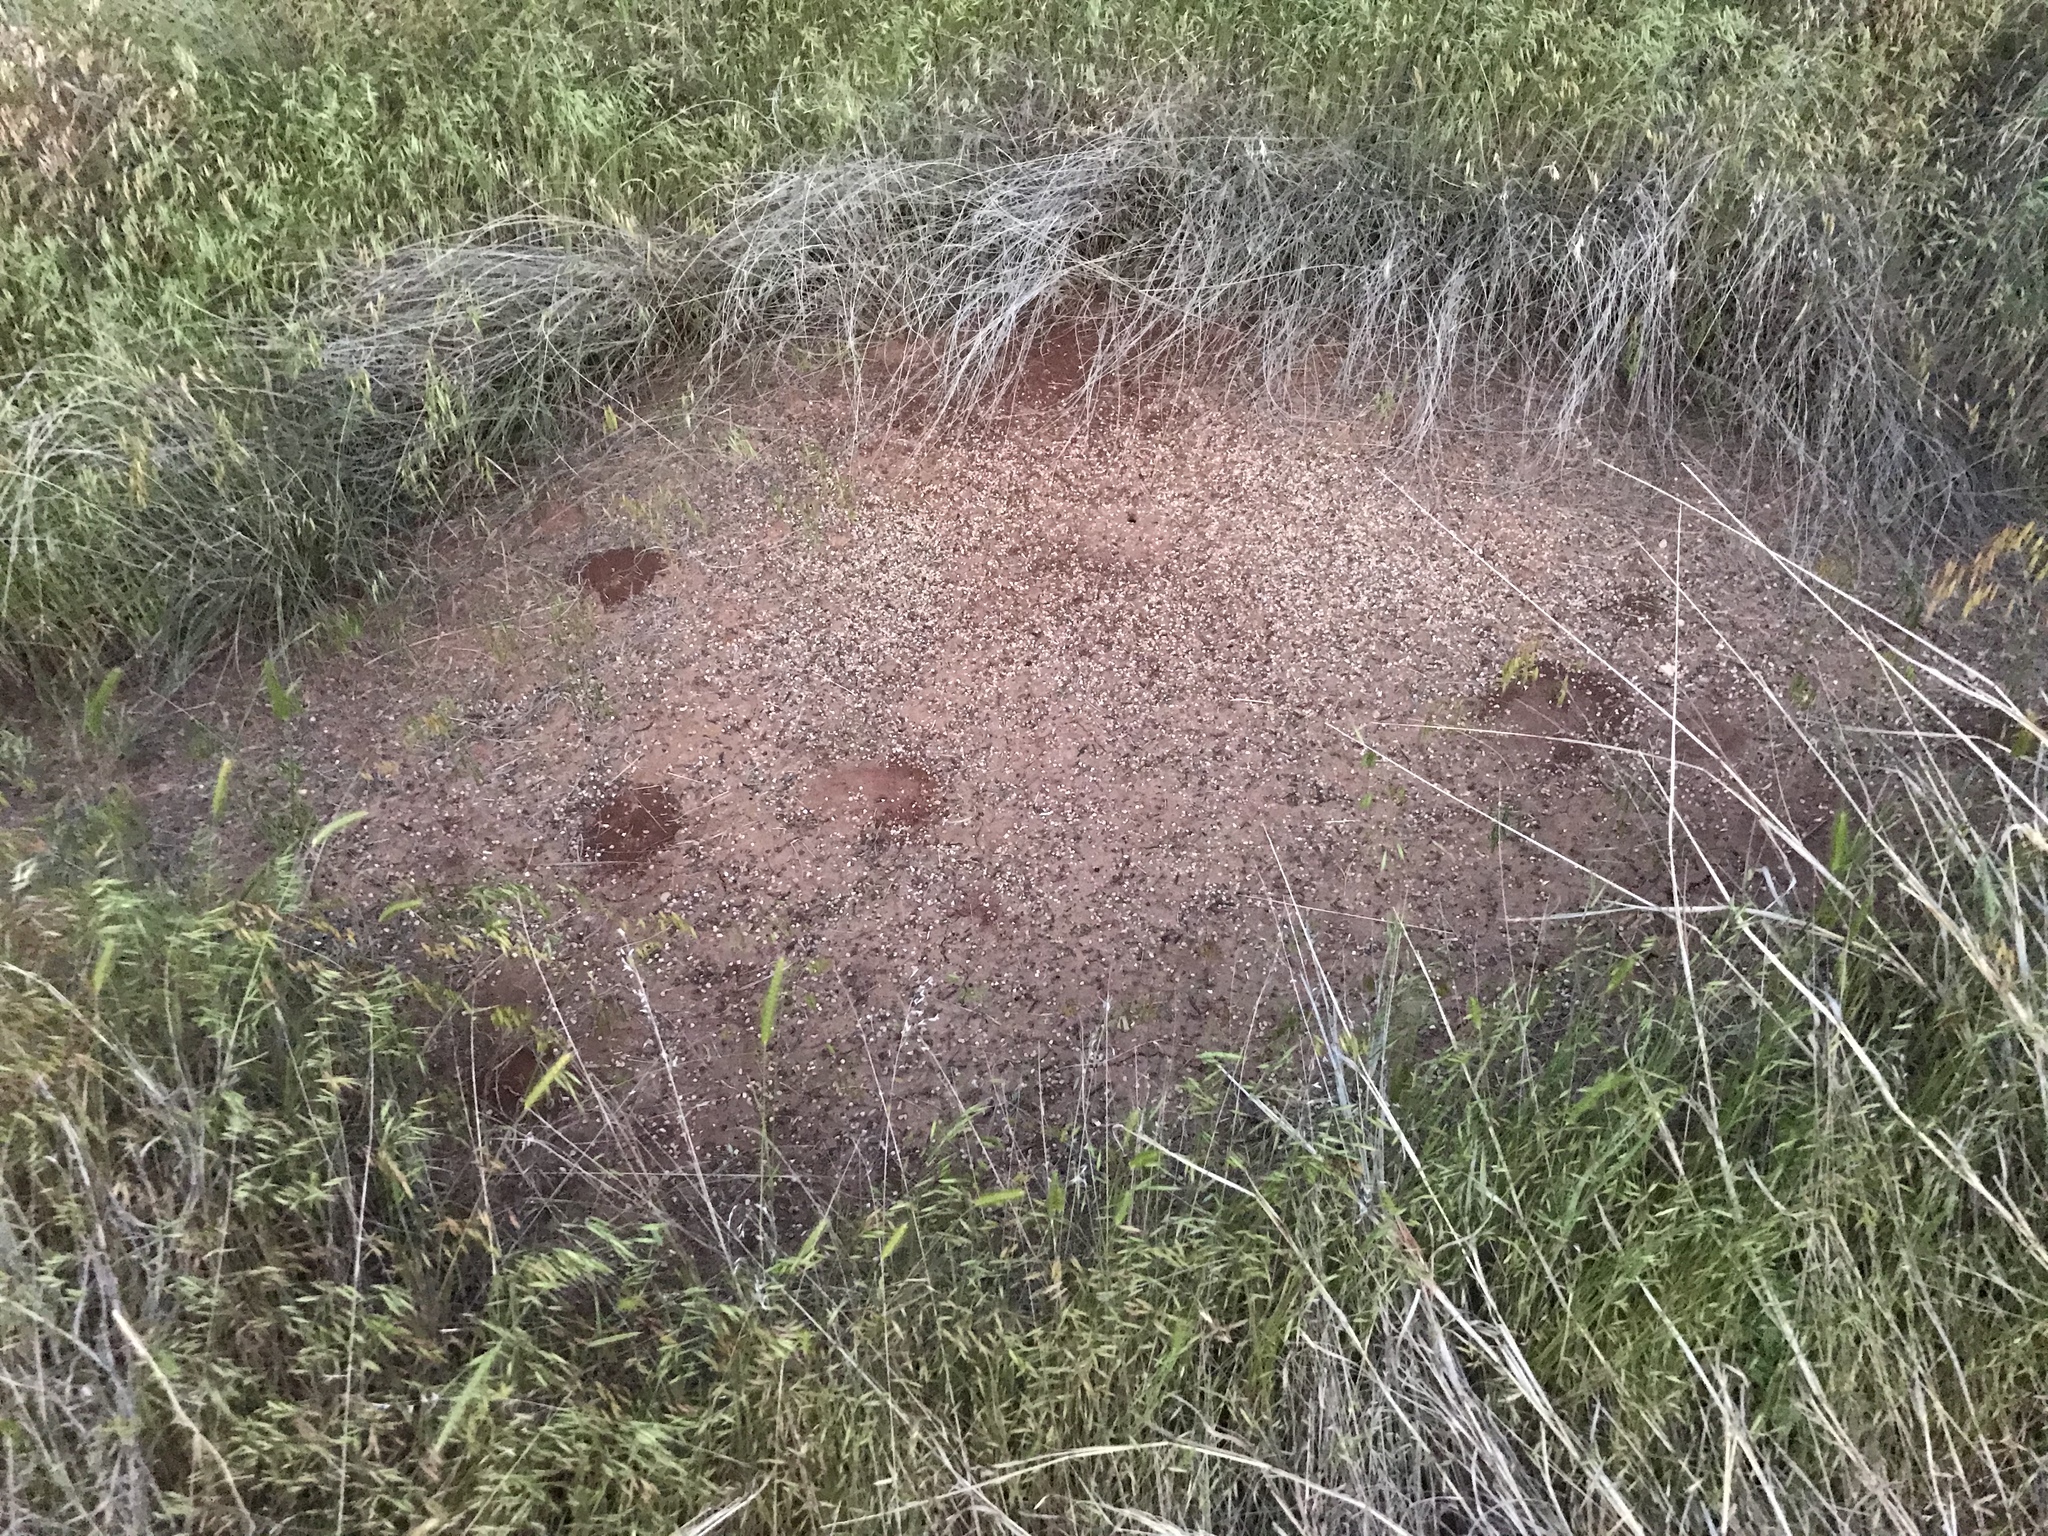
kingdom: Animalia
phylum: Arthropoda
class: Insecta
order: Hymenoptera
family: Formicidae
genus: Pogonomyrmex
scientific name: Pogonomyrmex barbatus
